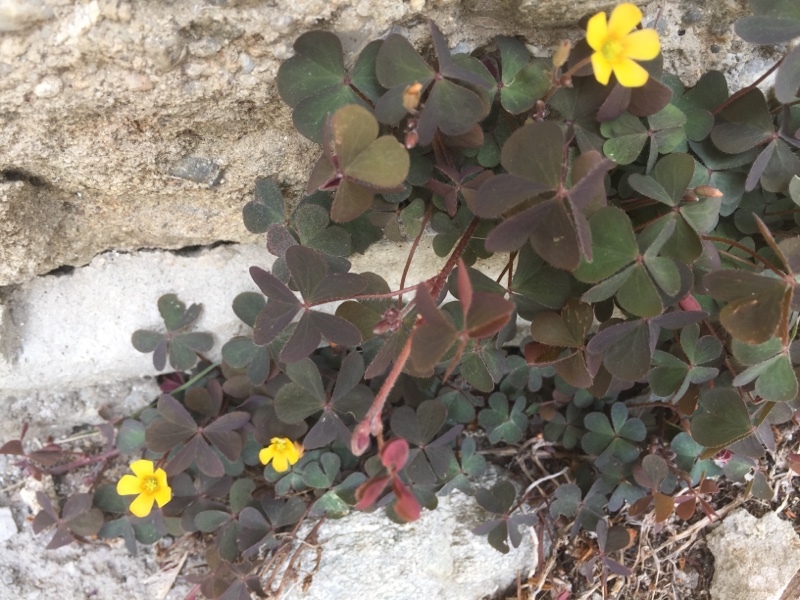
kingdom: Plantae
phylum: Tracheophyta
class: Magnoliopsida
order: Oxalidales
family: Oxalidaceae
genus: Oxalis
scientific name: Oxalis corniculata
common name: Procumbent yellow-sorrel
